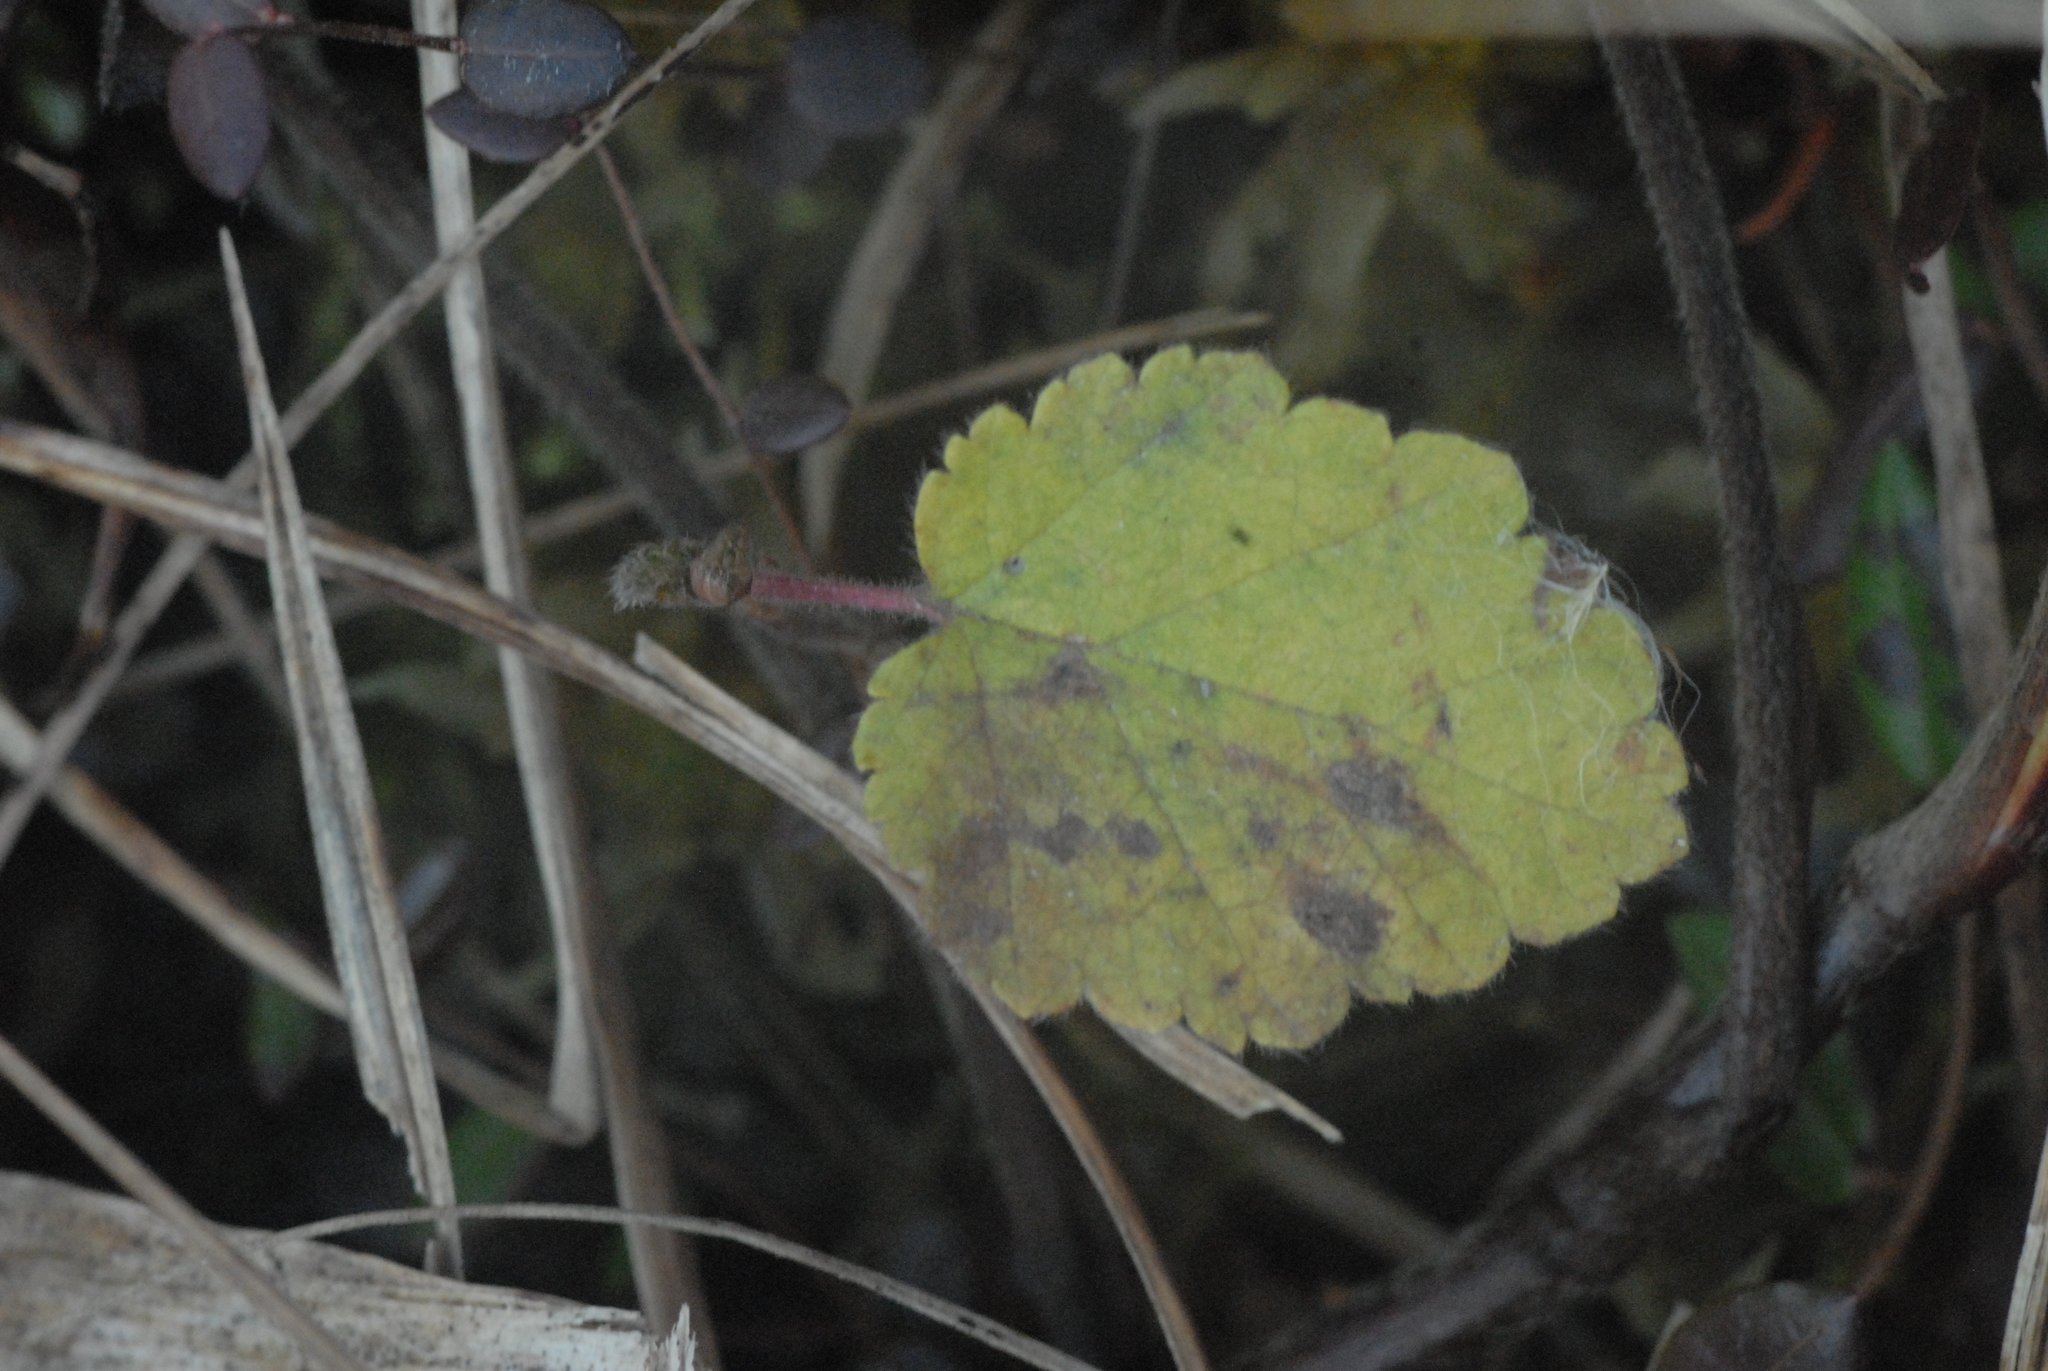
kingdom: Plantae
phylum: Tracheophyta
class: Magnoliopsida
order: Lamiales
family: Lamiaceae
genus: Stachys
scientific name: Stachys sylvatica
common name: Hedge woundwort
